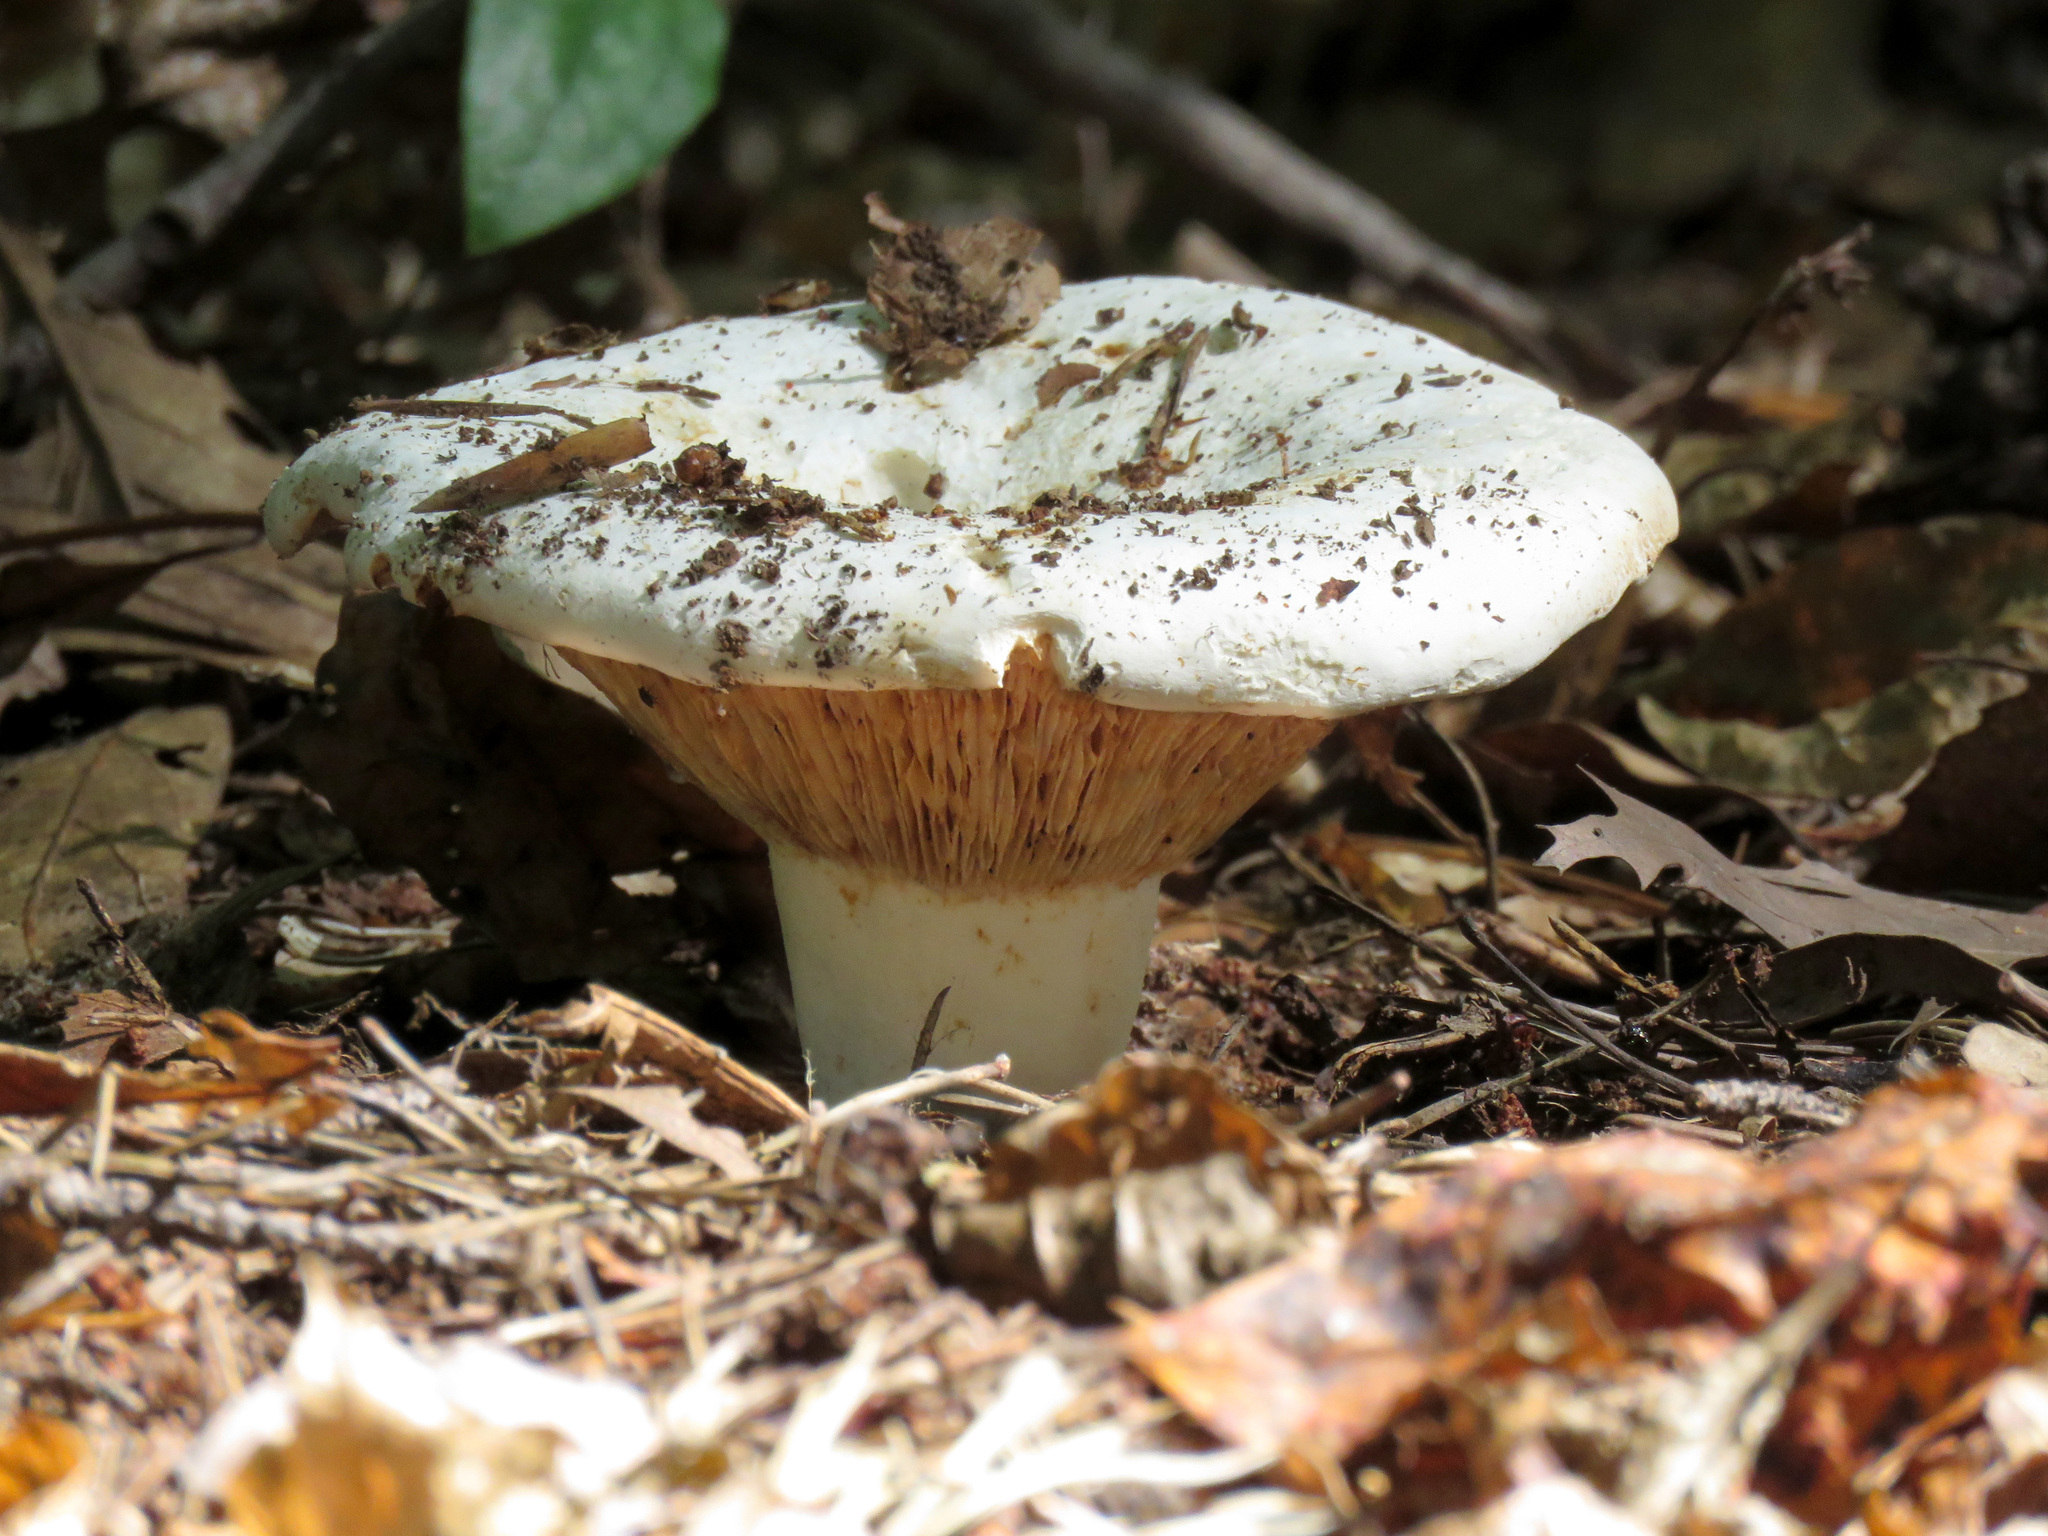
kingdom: Fungi
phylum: Basidiomycota
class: Agaricomycetes
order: Russulales
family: Russulaceae
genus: Russula
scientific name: Russula brevipes
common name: Short-stemmed russula
